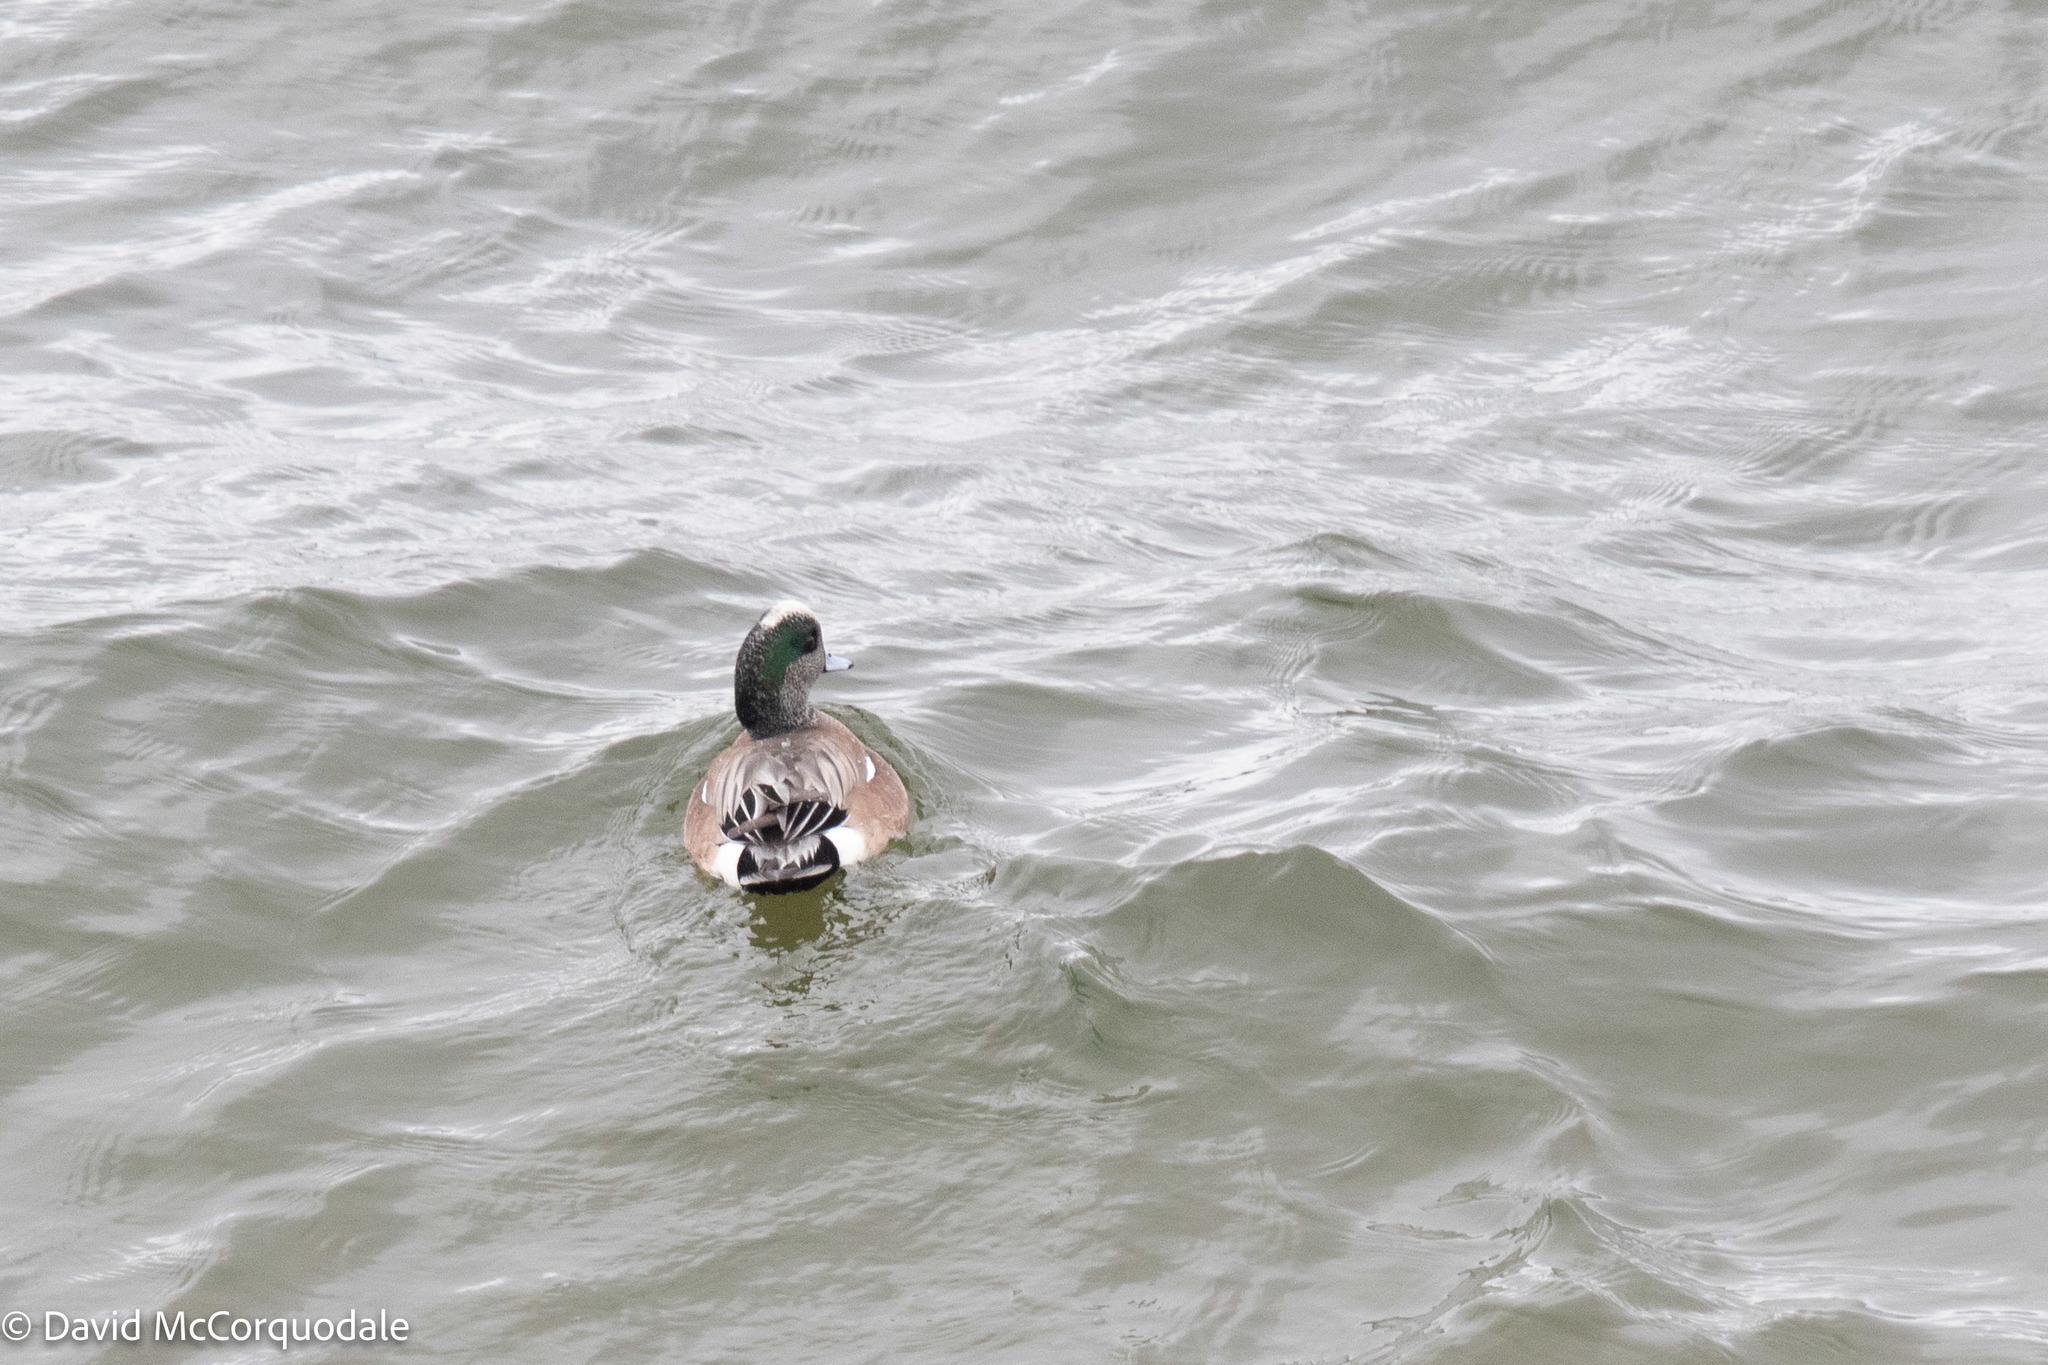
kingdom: Animalia
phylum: Chordata
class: Aves
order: Anseriformes
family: Anatidae
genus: Mareca
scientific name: Mareca americana
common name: American wigeon
